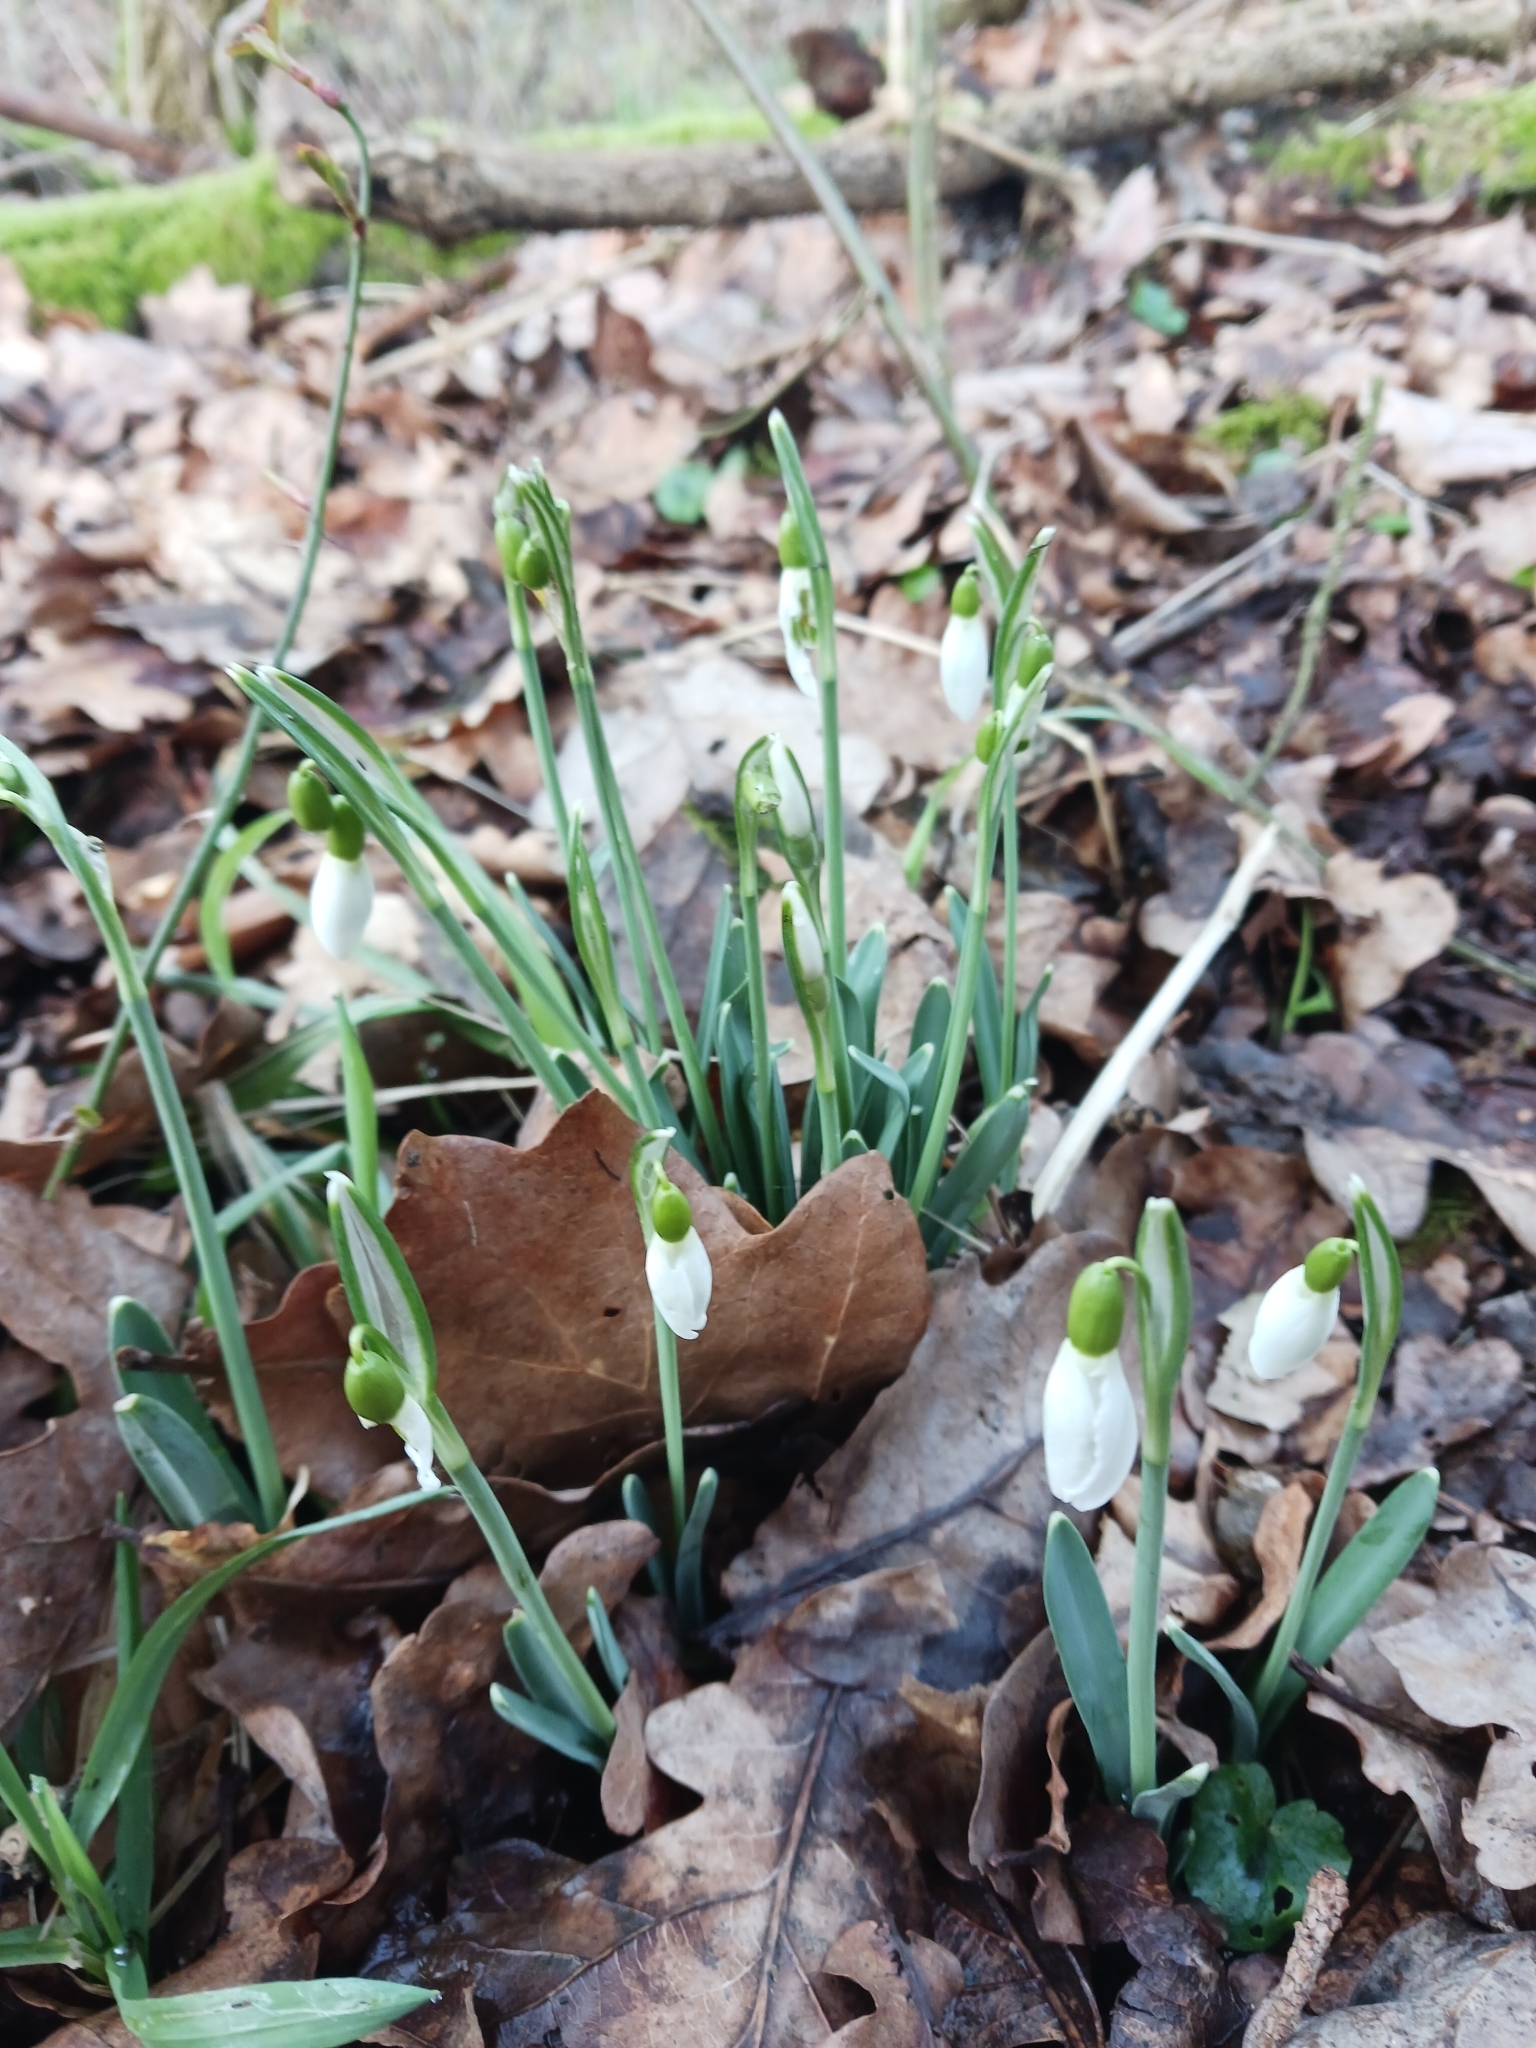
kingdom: Plantae
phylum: Tracheophyta
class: Liliopsida
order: Asparagales
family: Amaryllidaceae
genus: Galanthus
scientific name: Galanthus nivalis
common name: Snowdrop
